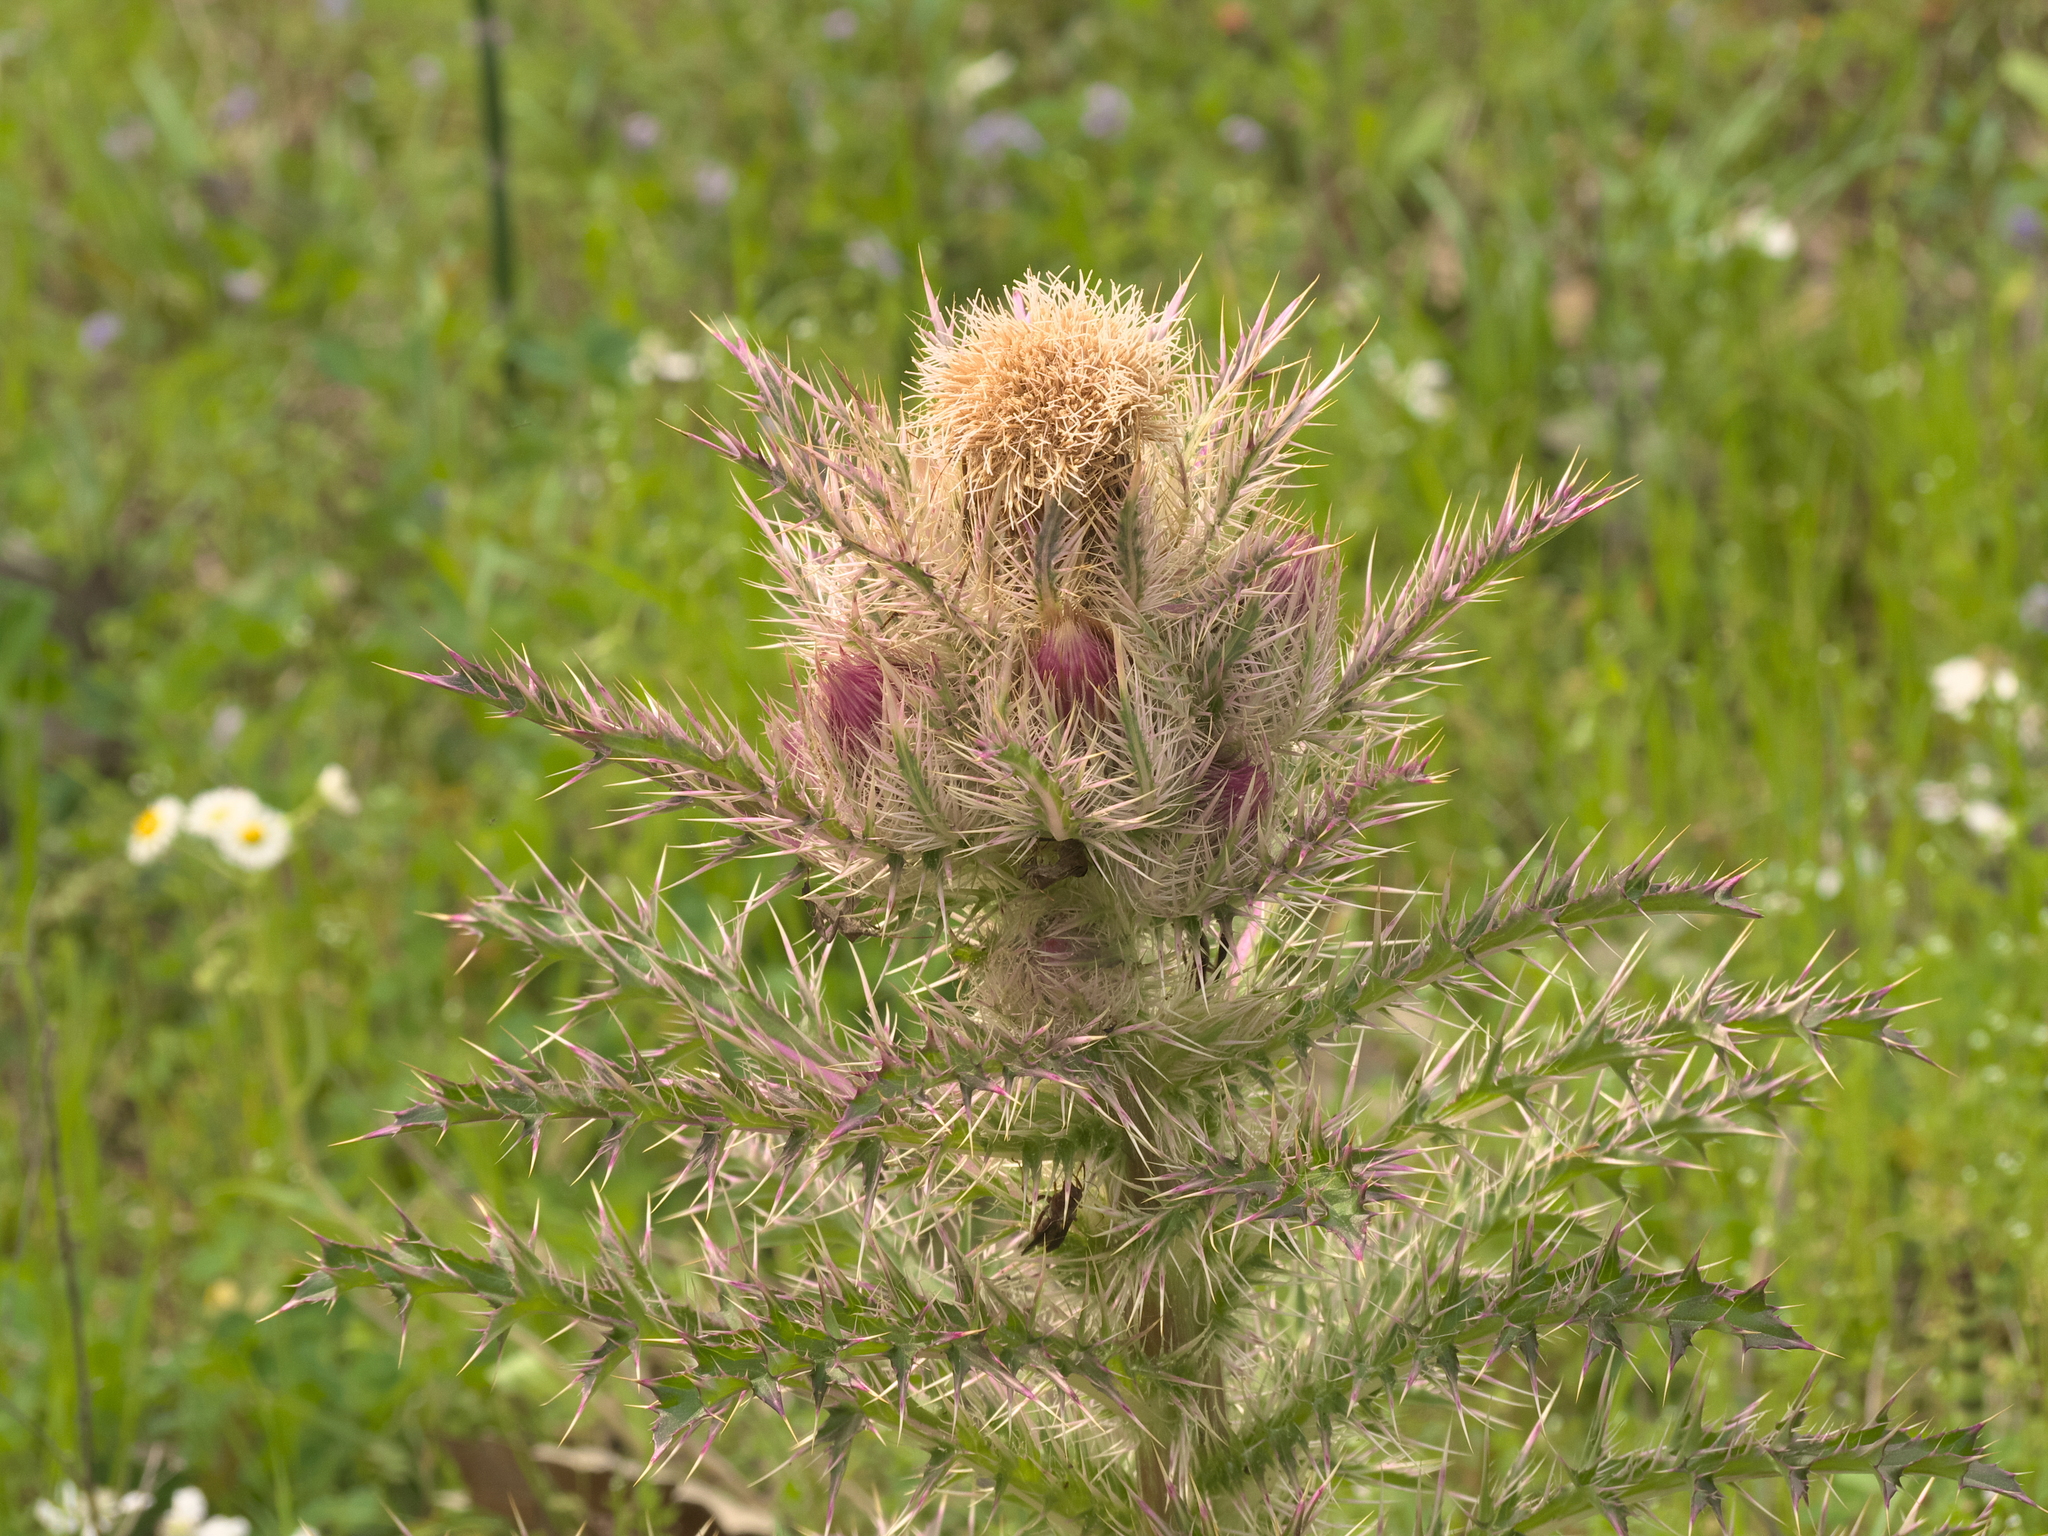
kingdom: Plantae
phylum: Tracheophyta
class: Magnoliopsida
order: Asterales
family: Asteraceae
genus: Cirsium
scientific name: Cirsium horridulum
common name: Bristly thistle
